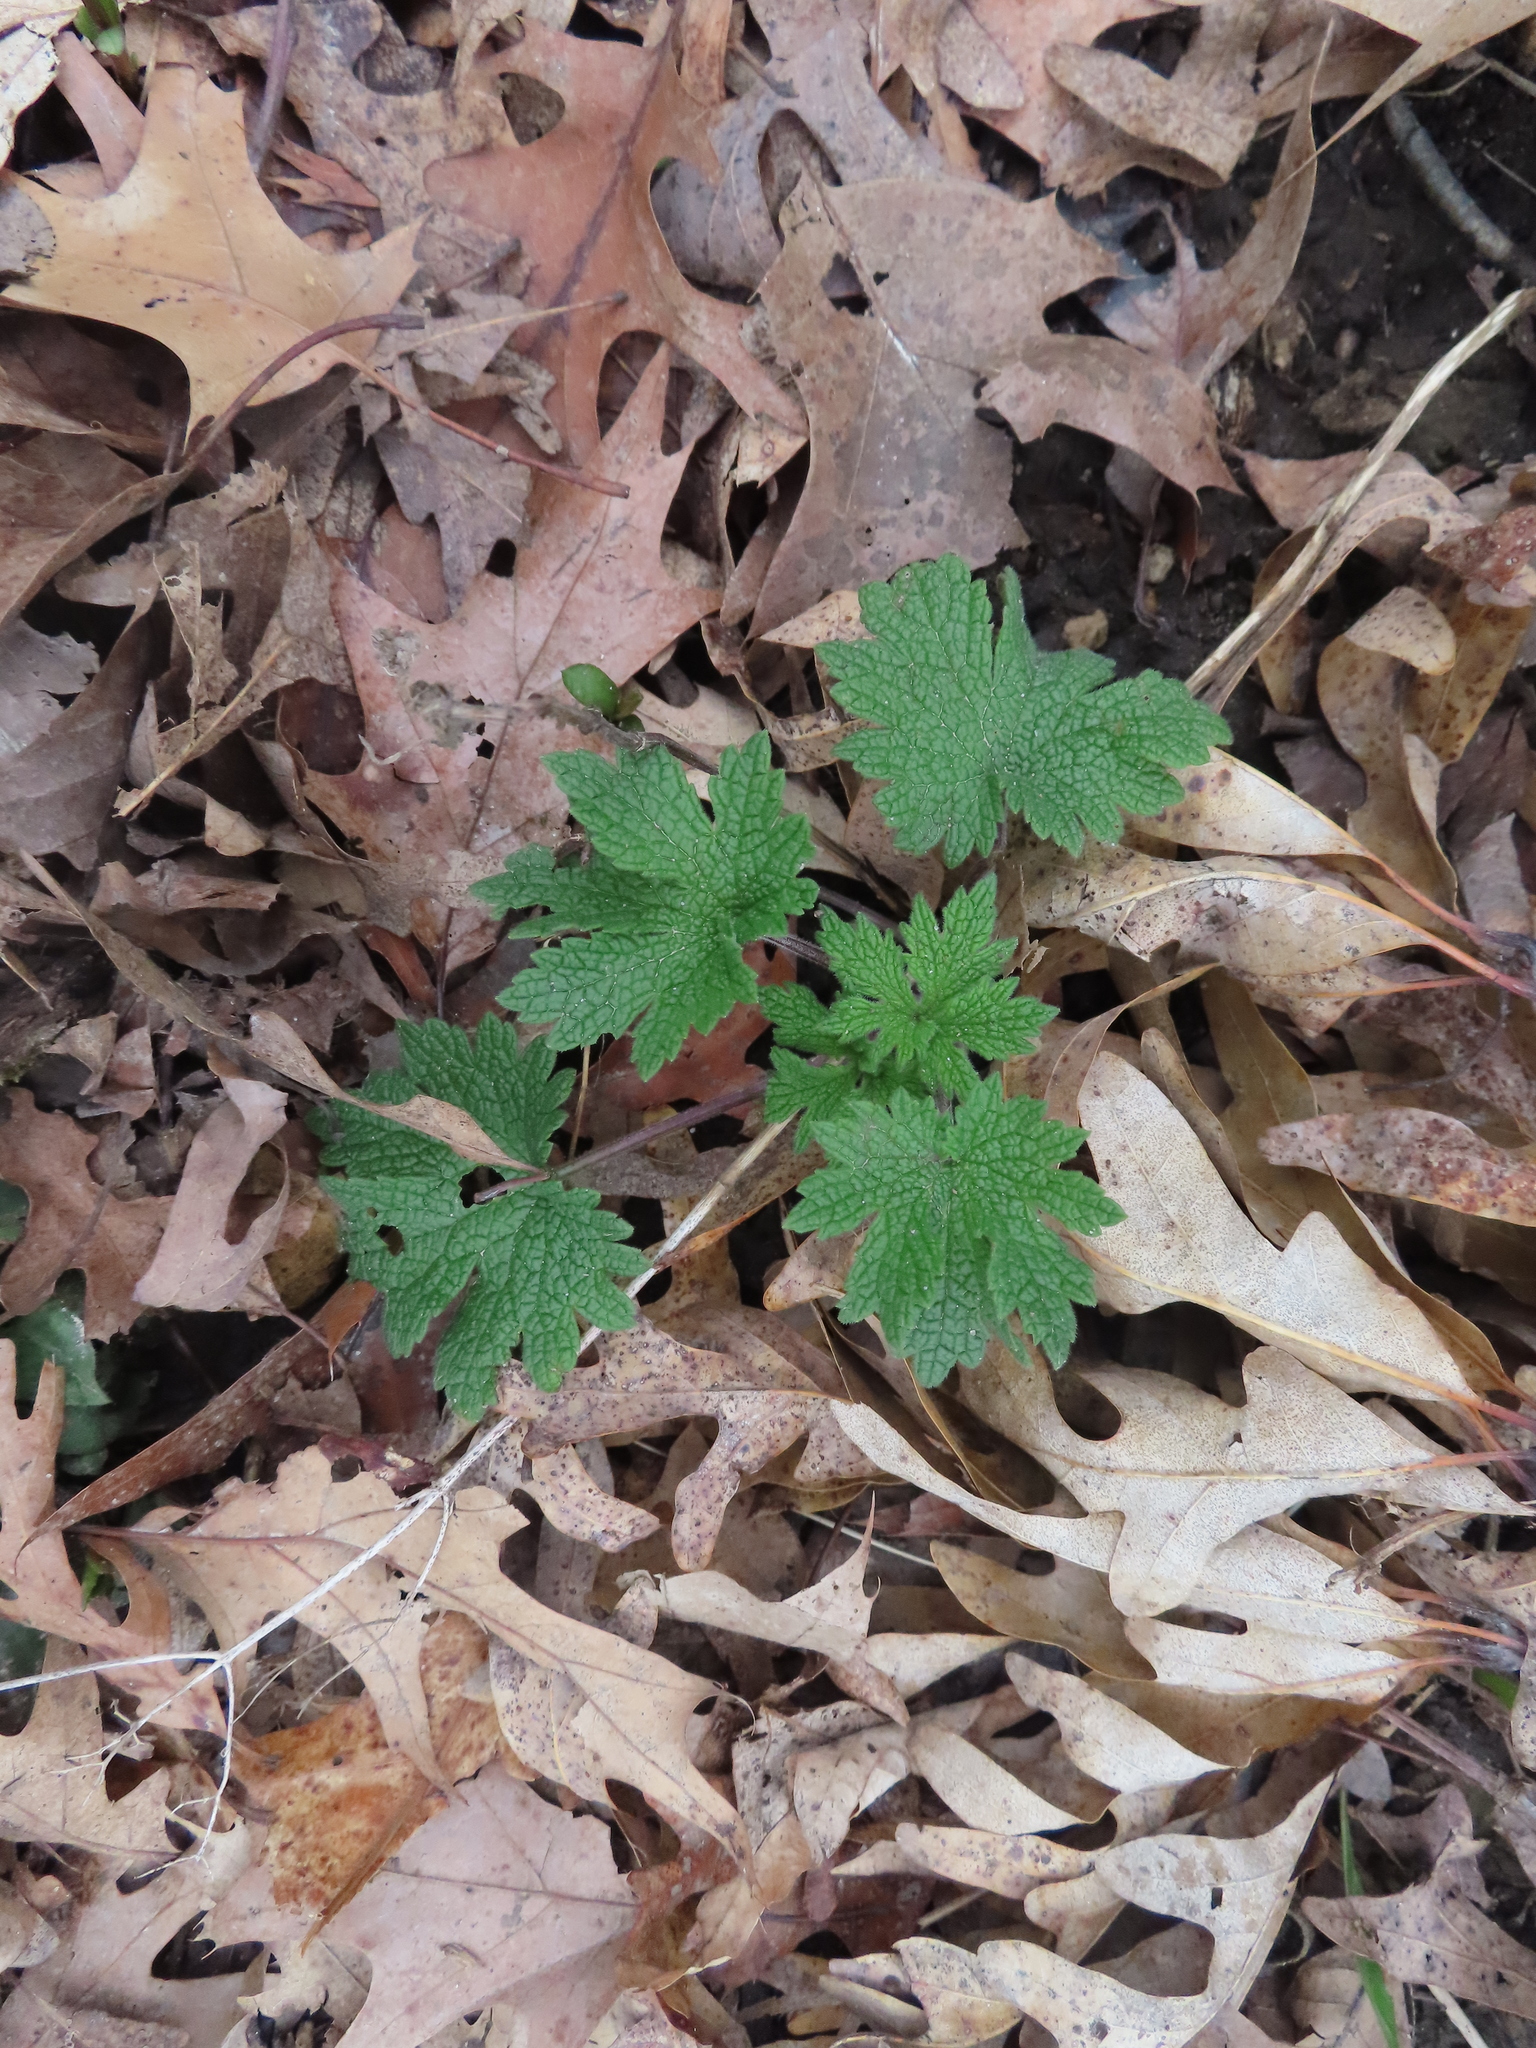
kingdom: Plantae
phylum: Tracheophyta
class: Magnoliopsida
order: Lamiales
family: Lamiaceae
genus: Leonurus
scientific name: Leonurus cardiaca
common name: Motherwort
